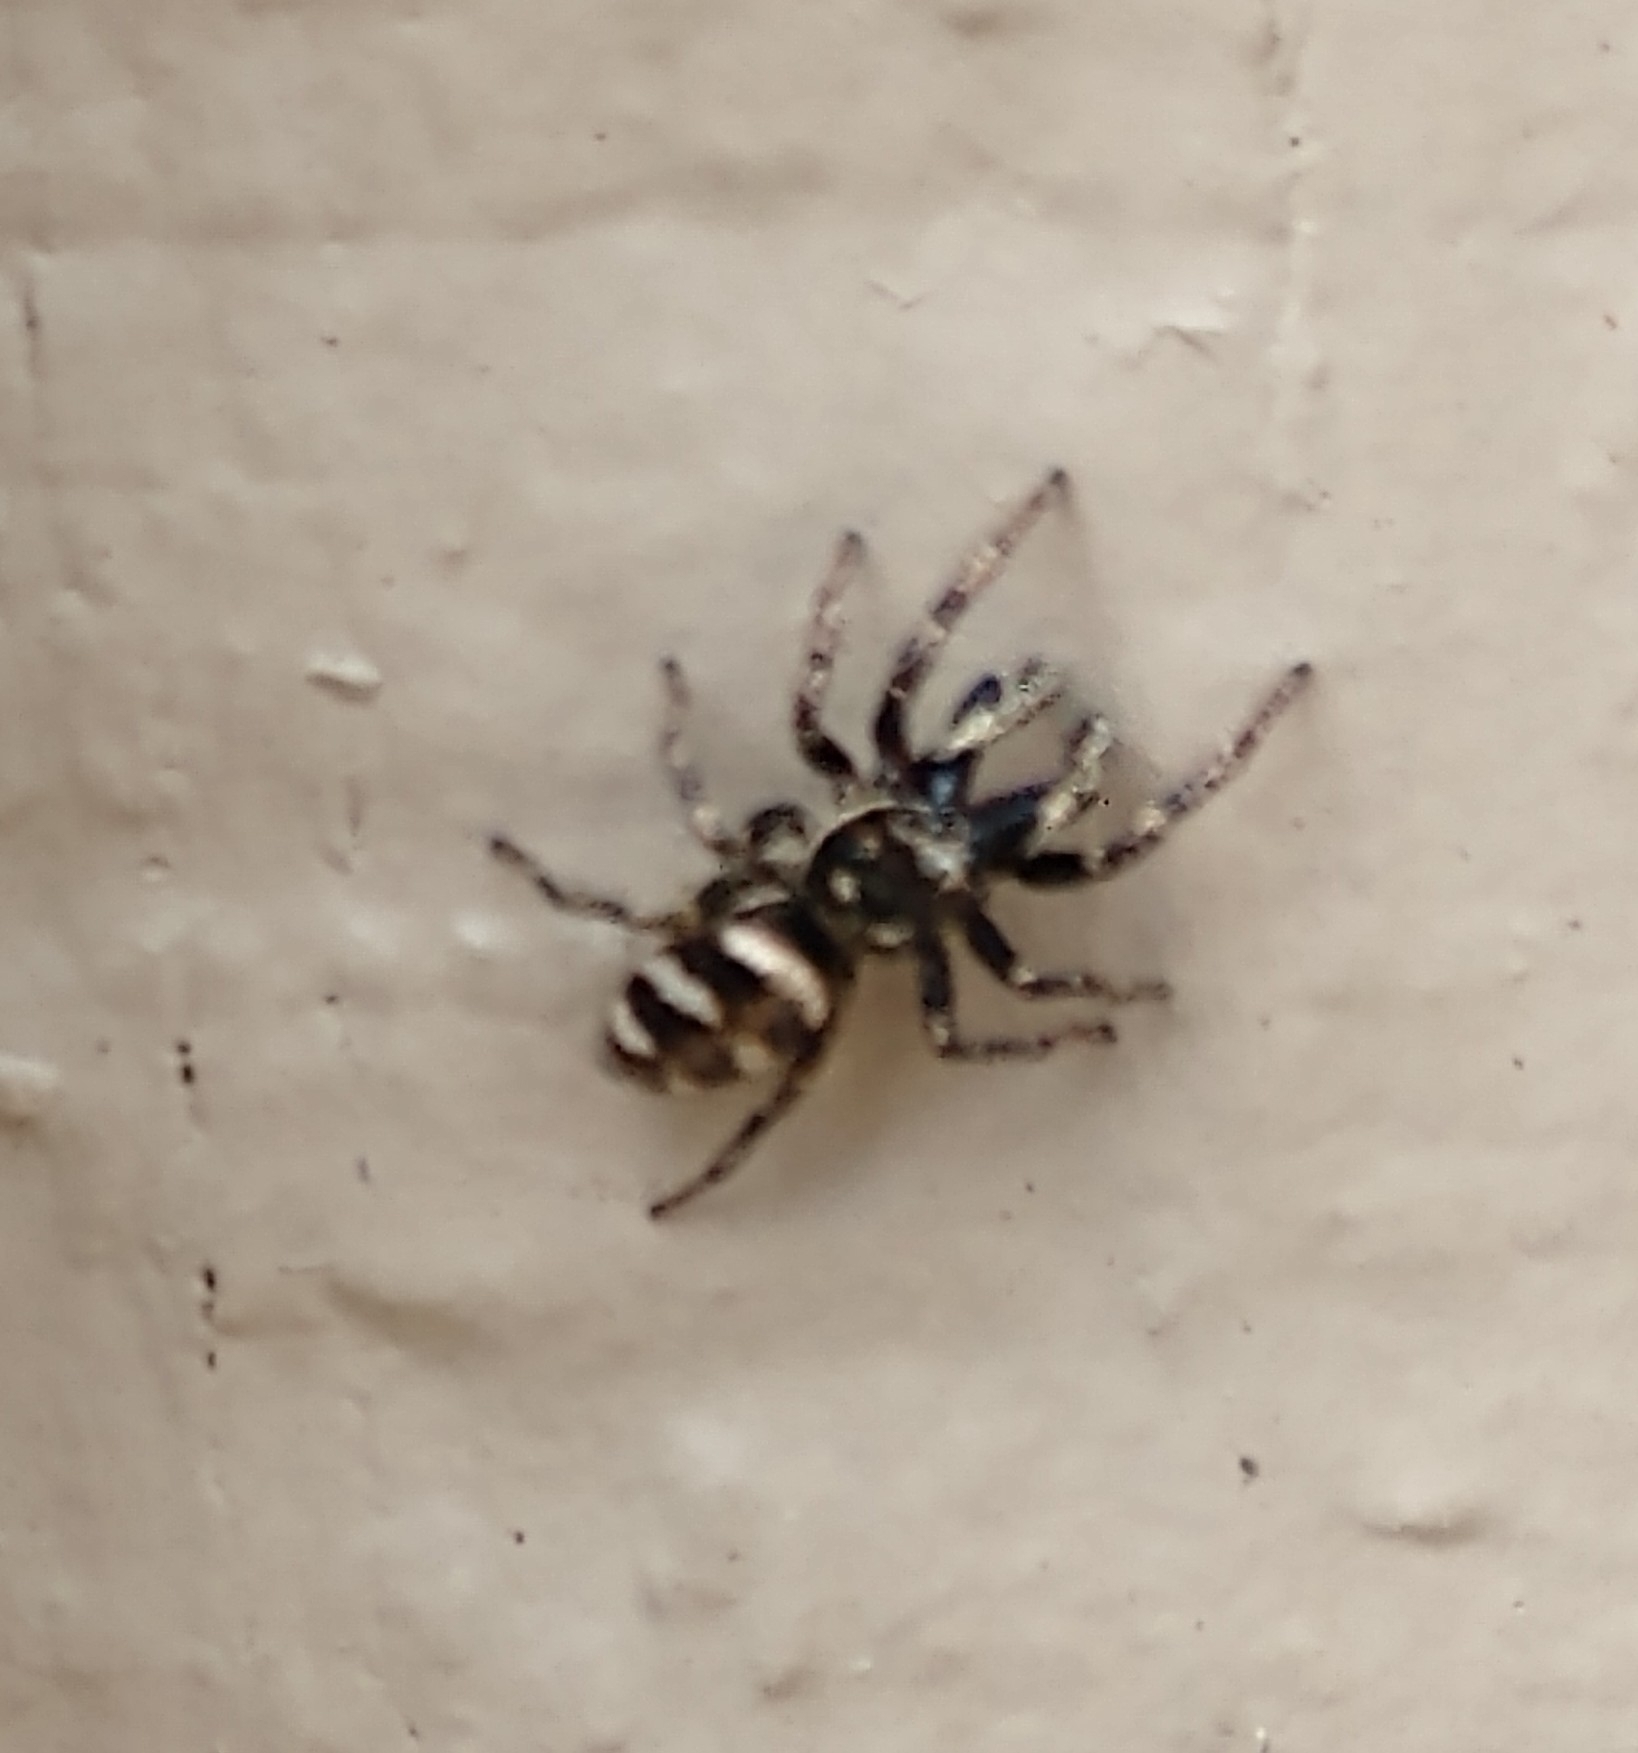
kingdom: Animalia
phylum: Arthropoda
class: Arachnida
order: Araneae
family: Salticidae
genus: Salticus
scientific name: Salticus scenicus
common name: Zebra jumper
